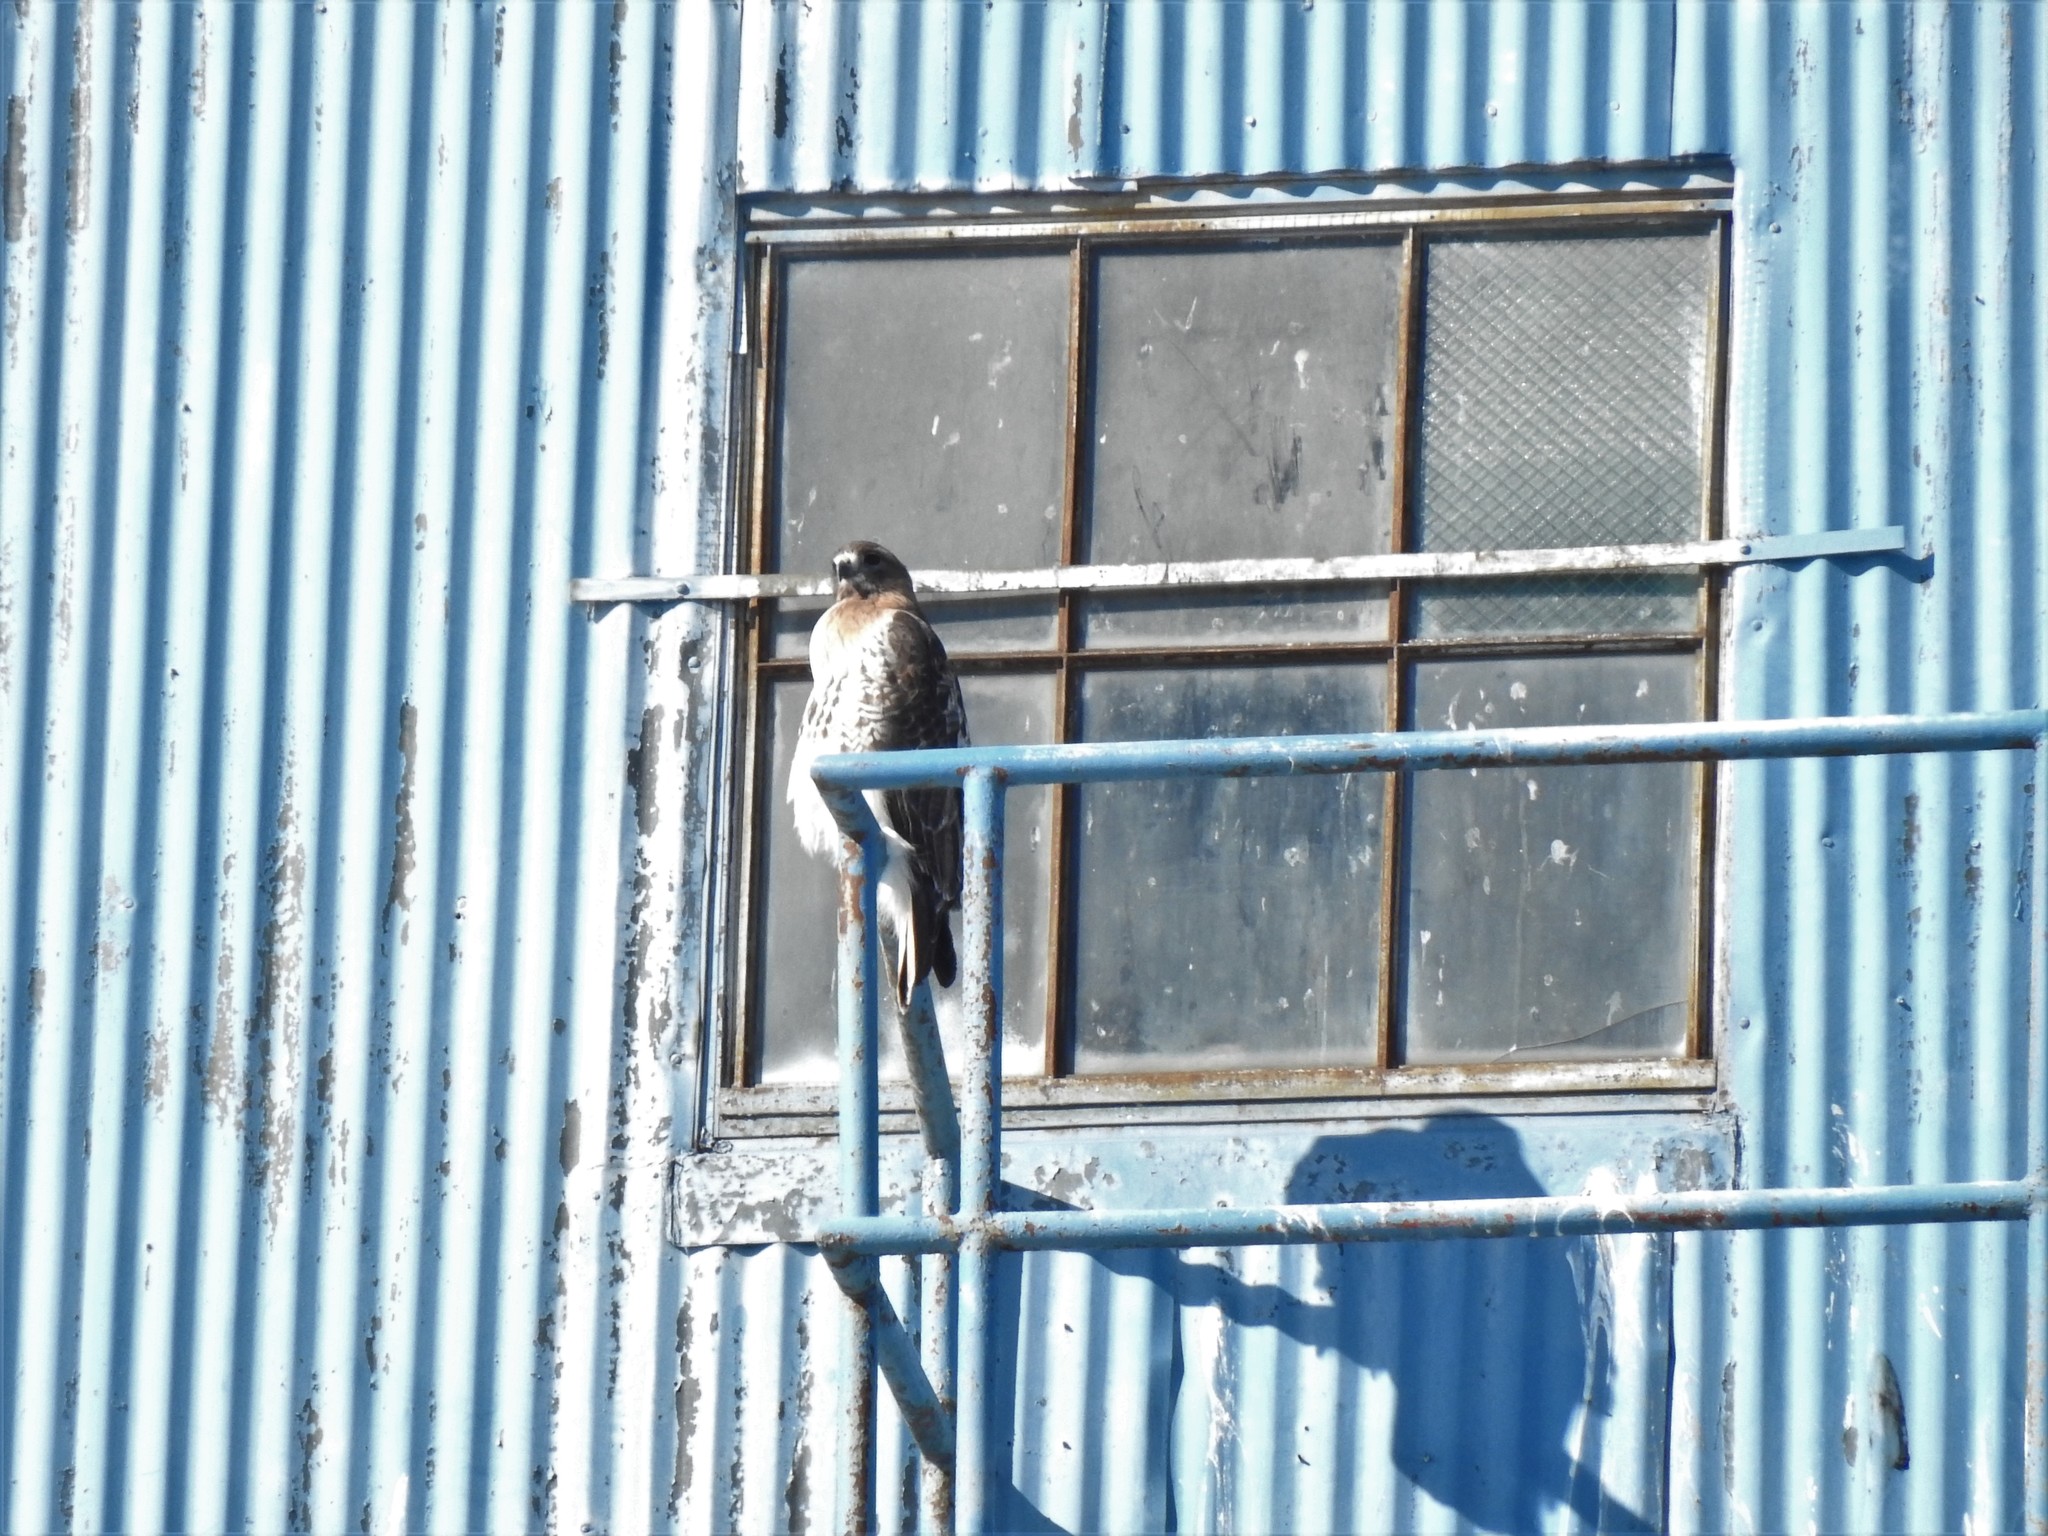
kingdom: Animalia
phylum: Chordata
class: Aves
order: Accipitriformes
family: Accipitridae
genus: Buteo
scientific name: Buteo jamaicensis
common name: Red-tailed hawk
